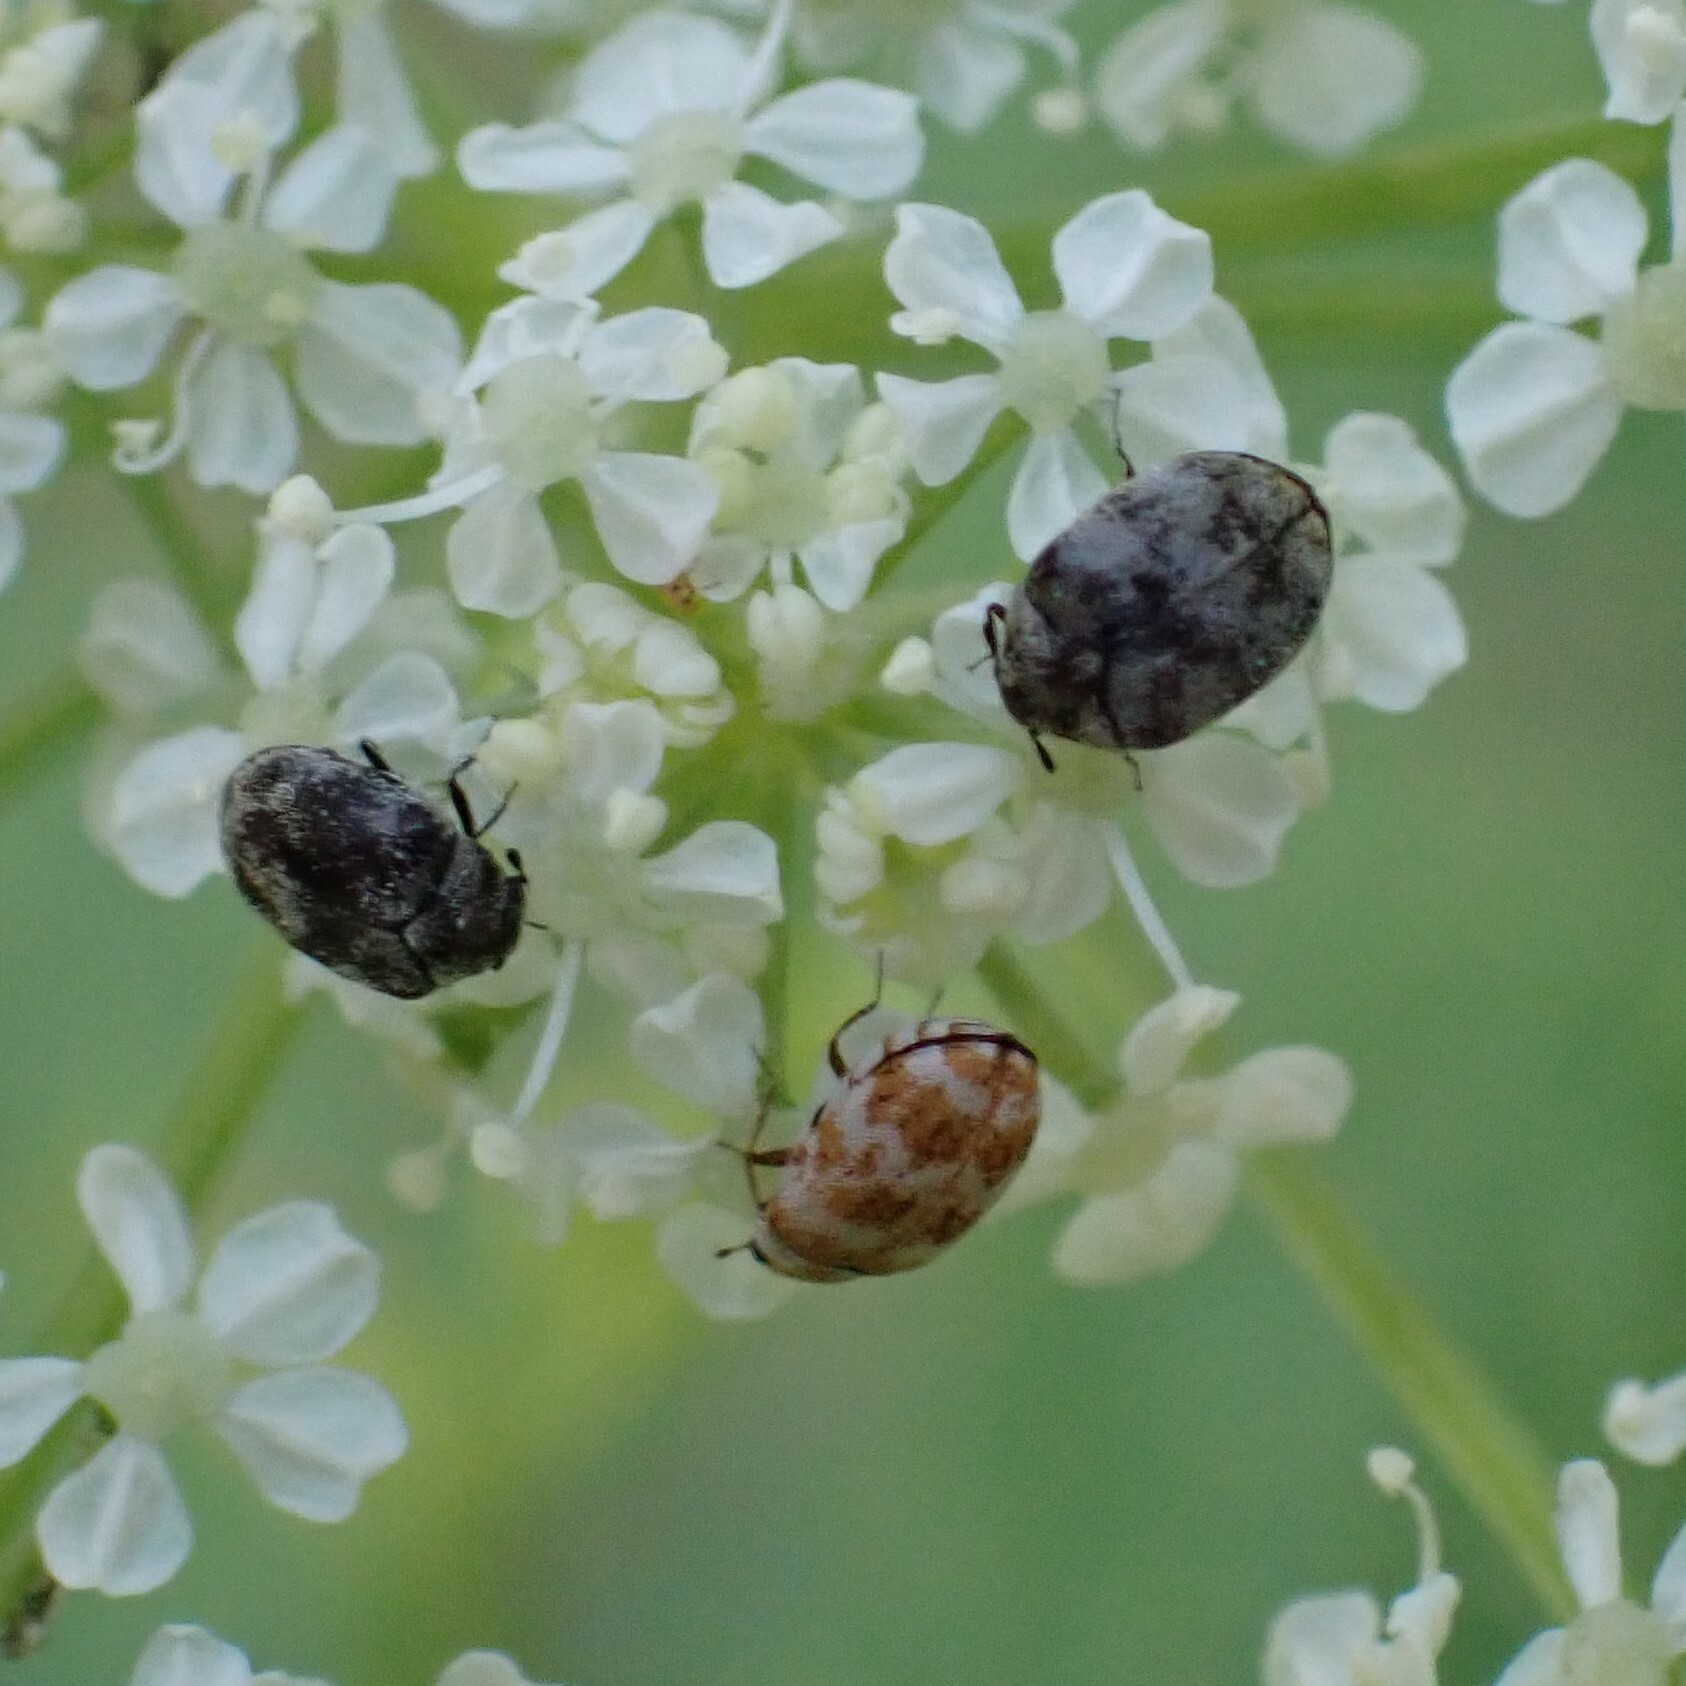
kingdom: Animalia
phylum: Arthropoda
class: Insecta
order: Coleoptera
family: Dermestidae
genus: Anthrenus
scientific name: Anthrenus verbasci
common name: Varied carpet beetle
